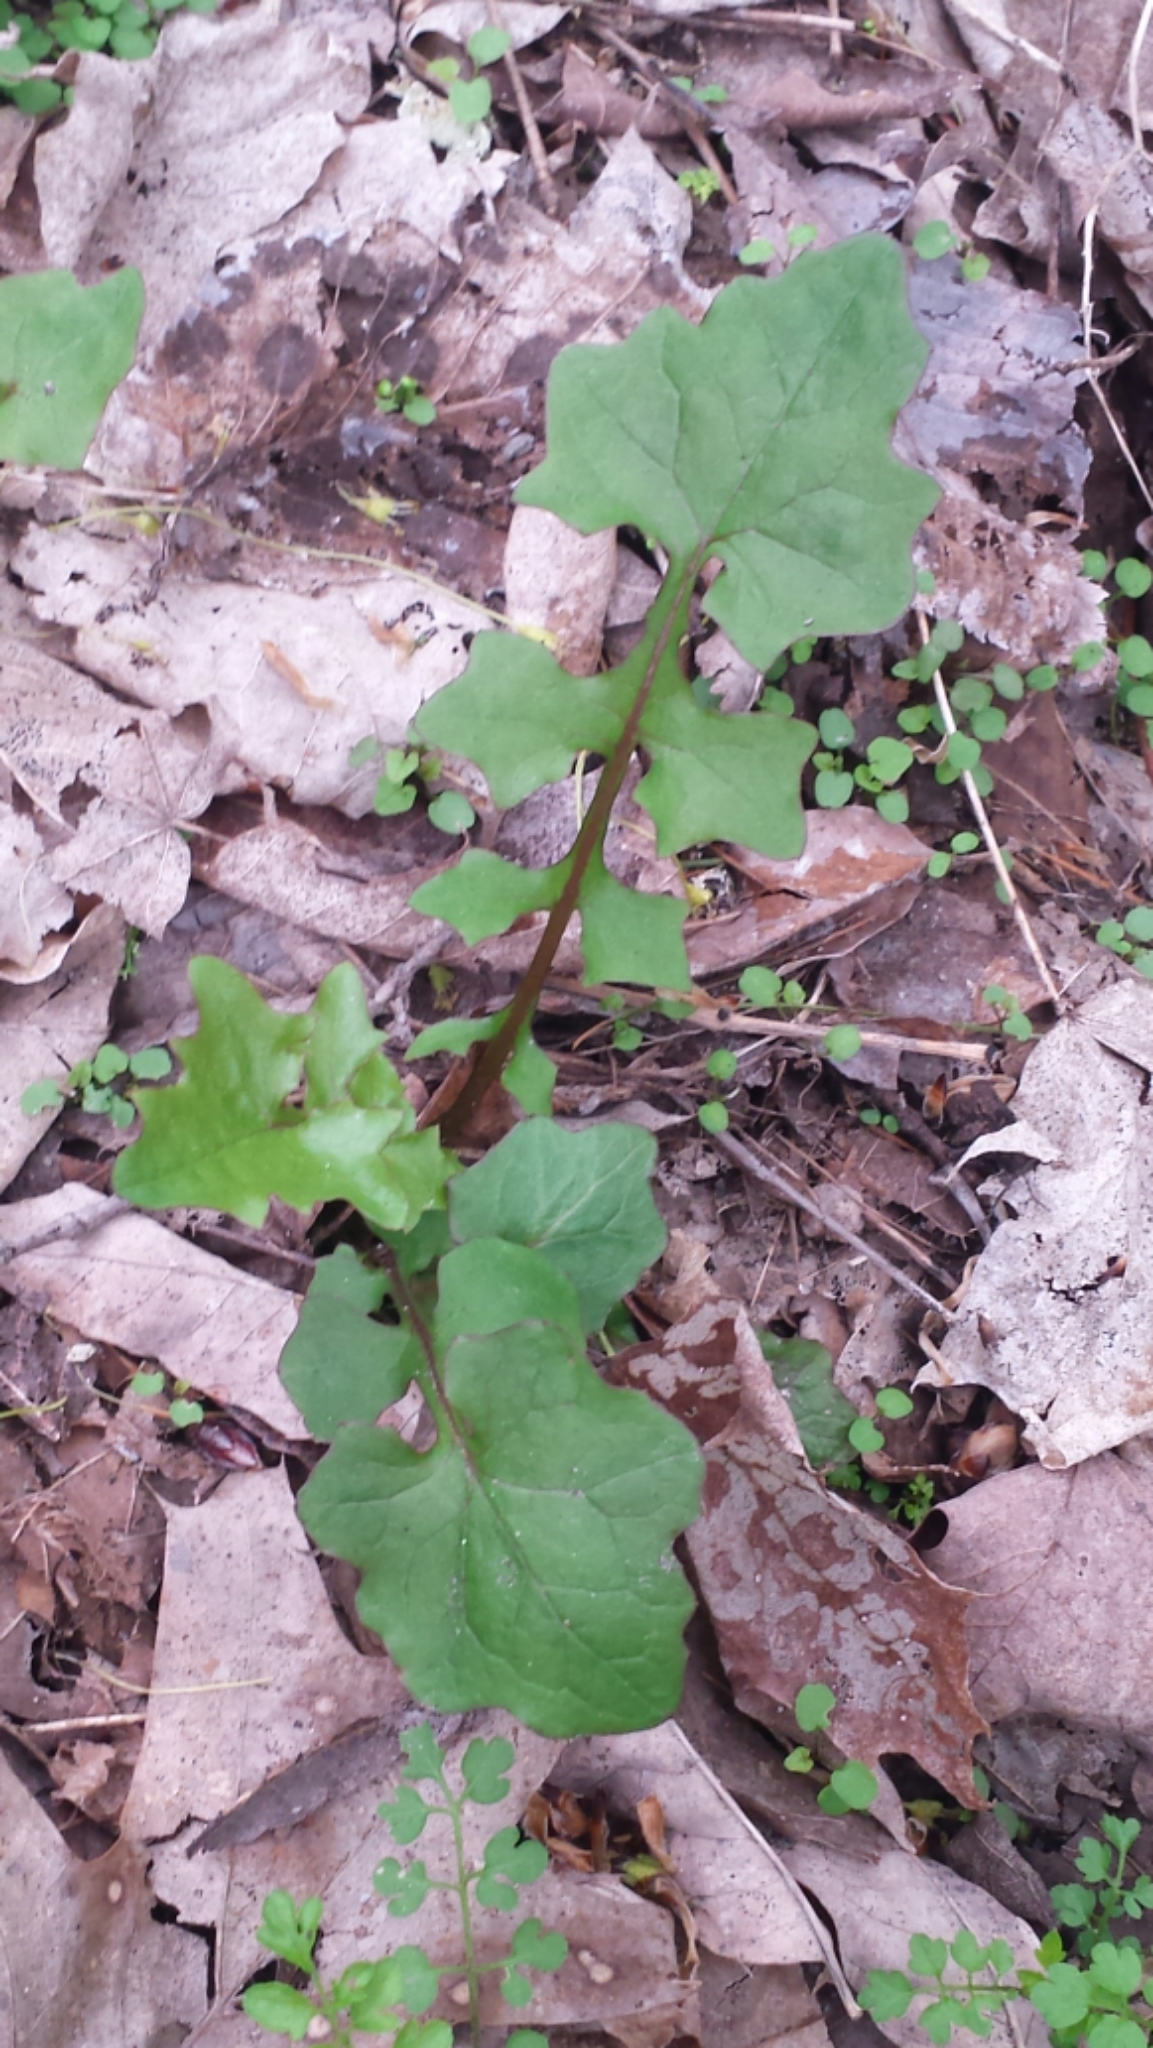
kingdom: Plantae
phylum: Tracheophyta
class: Magnoliopsida
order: Asterales
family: Asteraceae
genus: Mycelis
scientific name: Mycelis muralis
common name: Wall lettuce
